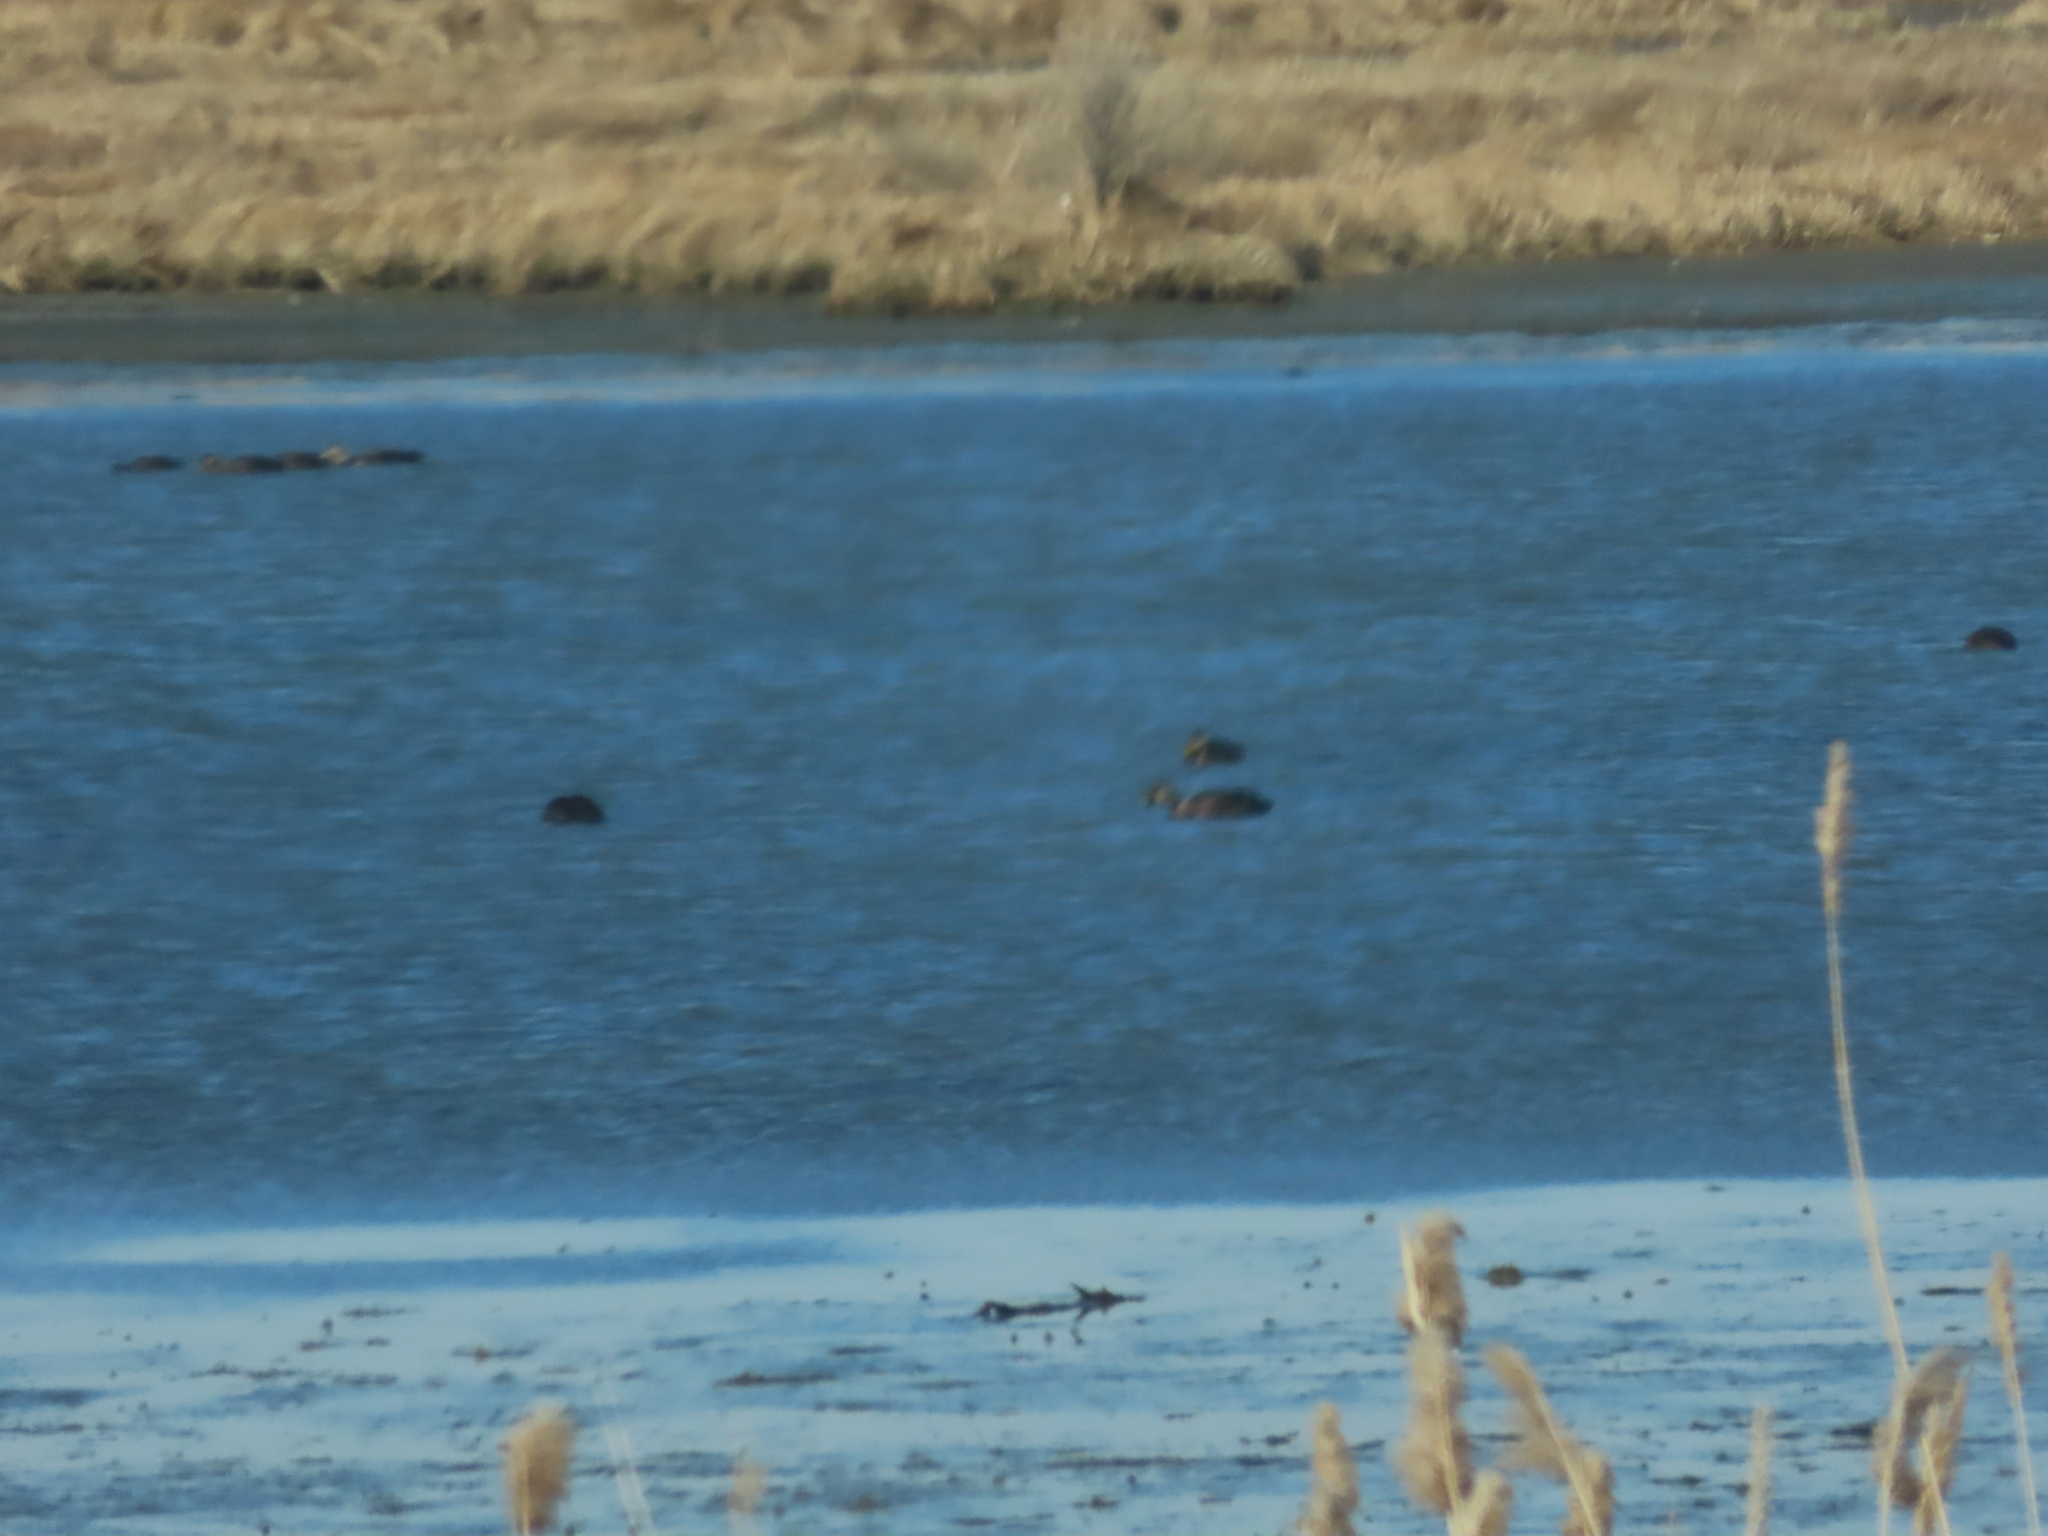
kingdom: Animalia
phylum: Chordata
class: Aves
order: Anseriformes
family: Anatidae
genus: Anas
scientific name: Anas rubripes
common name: American black duck
